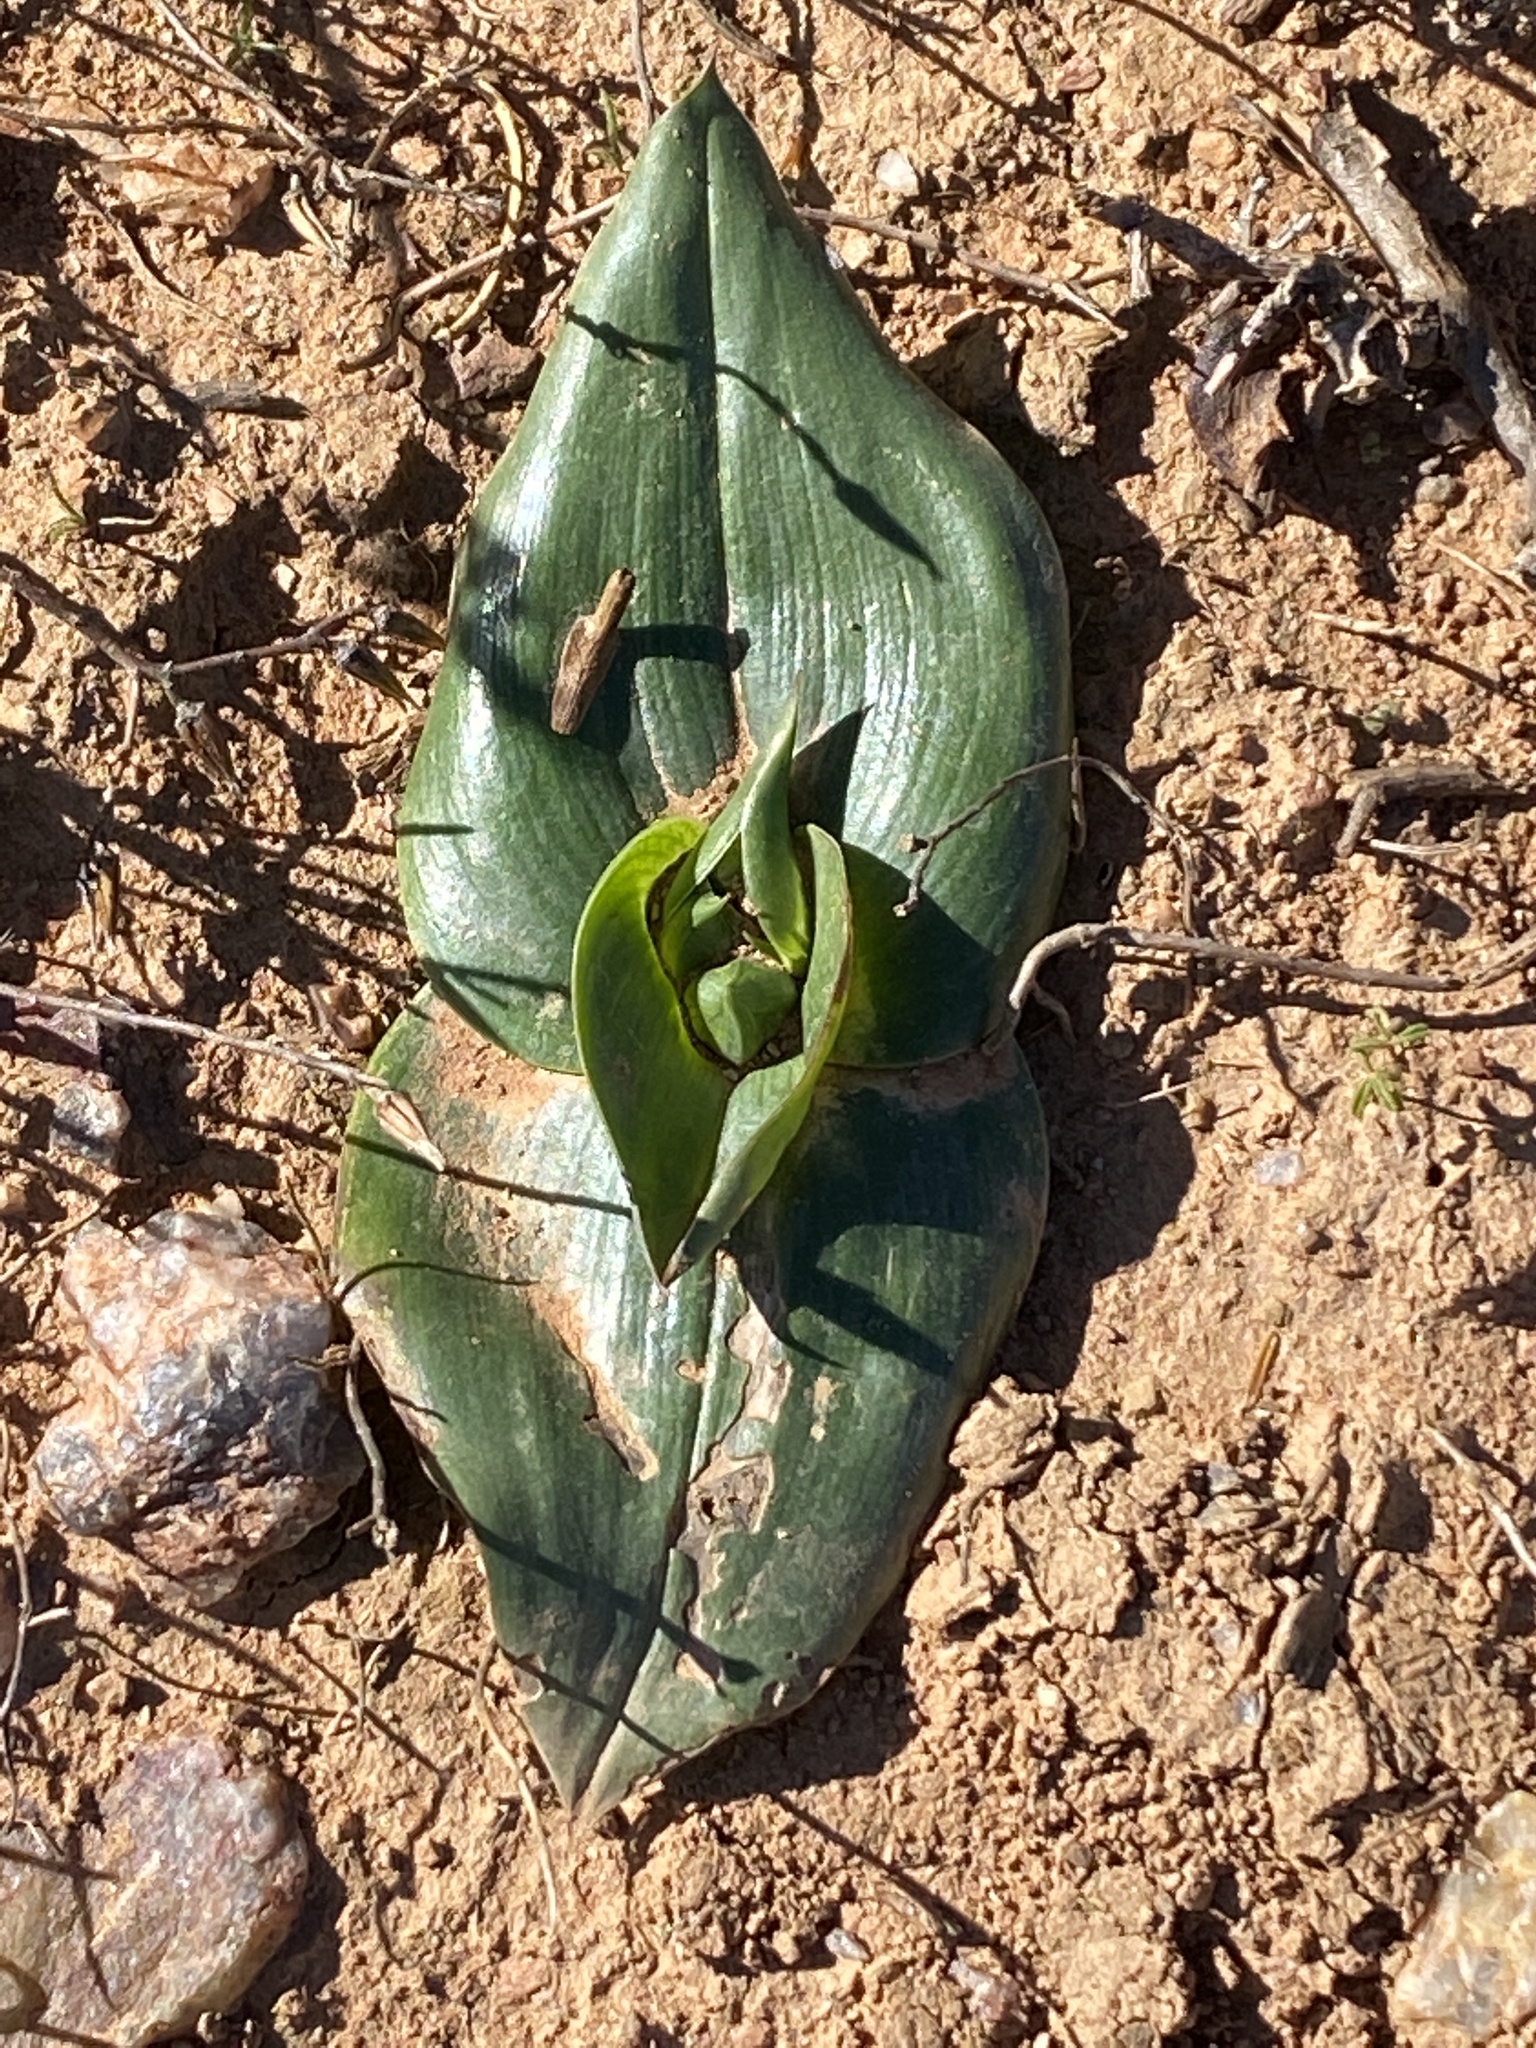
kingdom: Plantae
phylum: Tracheophyta
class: Liliopsida
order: Liliales
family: Colchicaceae
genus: Colchicum
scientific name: Colchicum eucomoides
